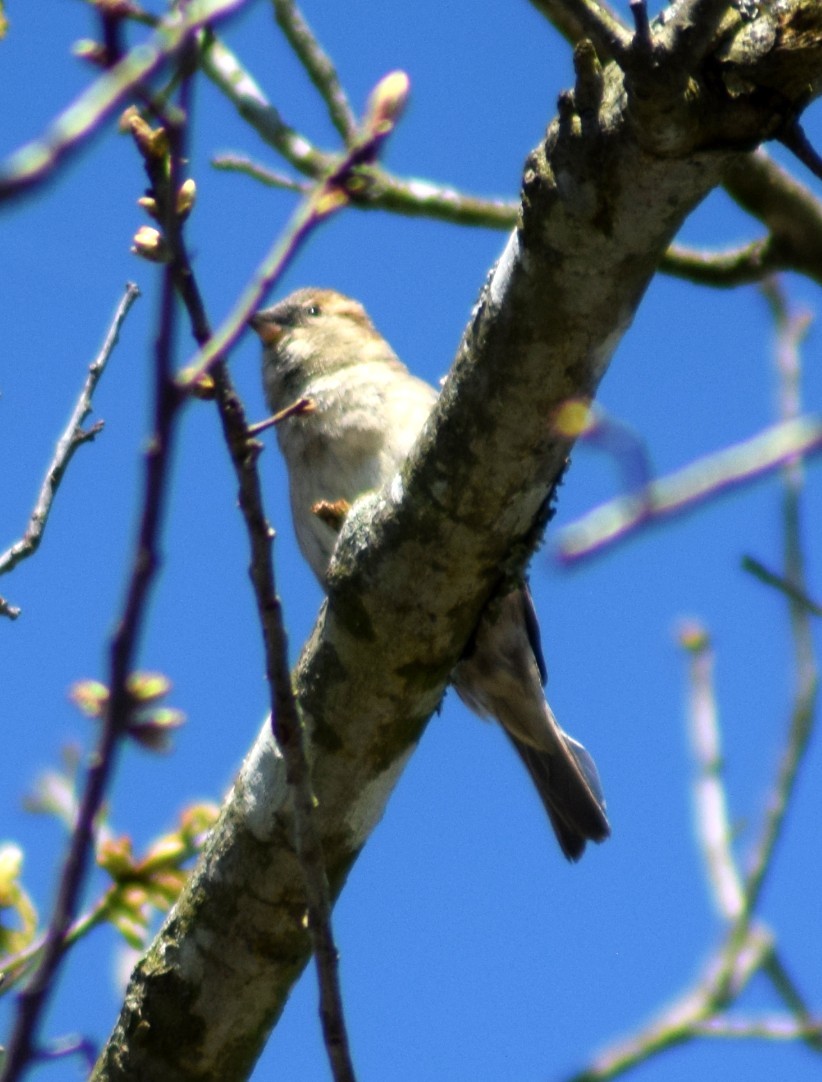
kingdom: Animalia
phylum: Chordata
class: Aves
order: Passeriformes
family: Passeridae
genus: Passer
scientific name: Passer domesticus
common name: House sparrow
